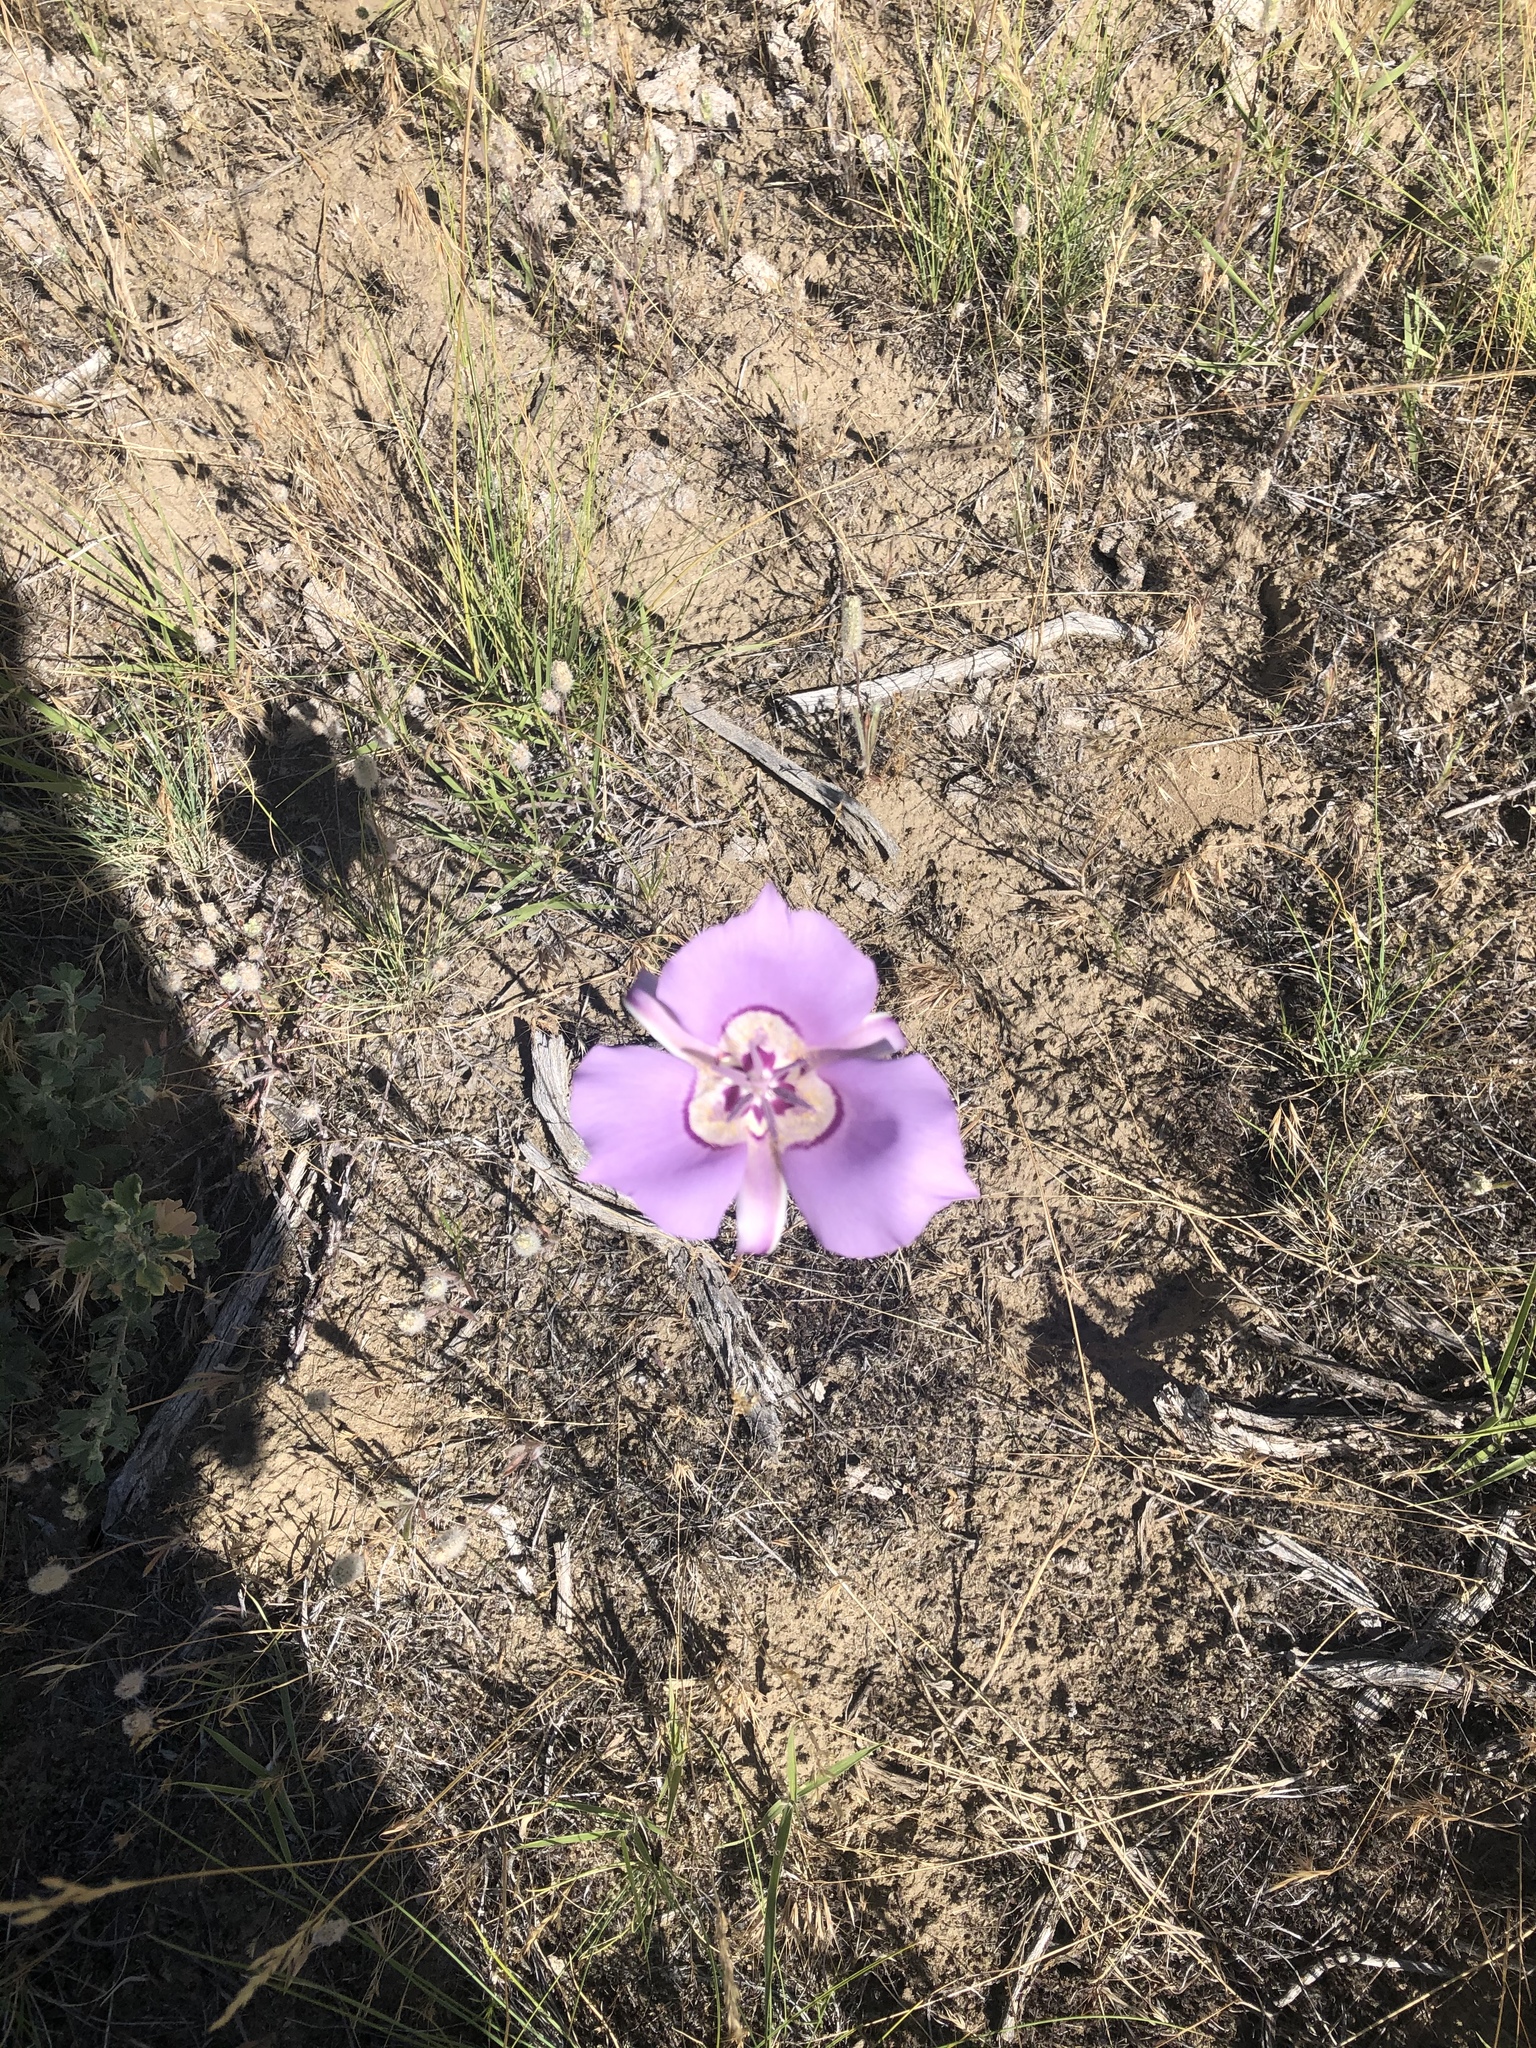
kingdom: Plantae
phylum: Tracheophyta
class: Liliopsida
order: Liliales
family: Liliaceae
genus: Calochortus
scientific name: Calochortus macrocarpus
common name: Green-band mariposa lily
